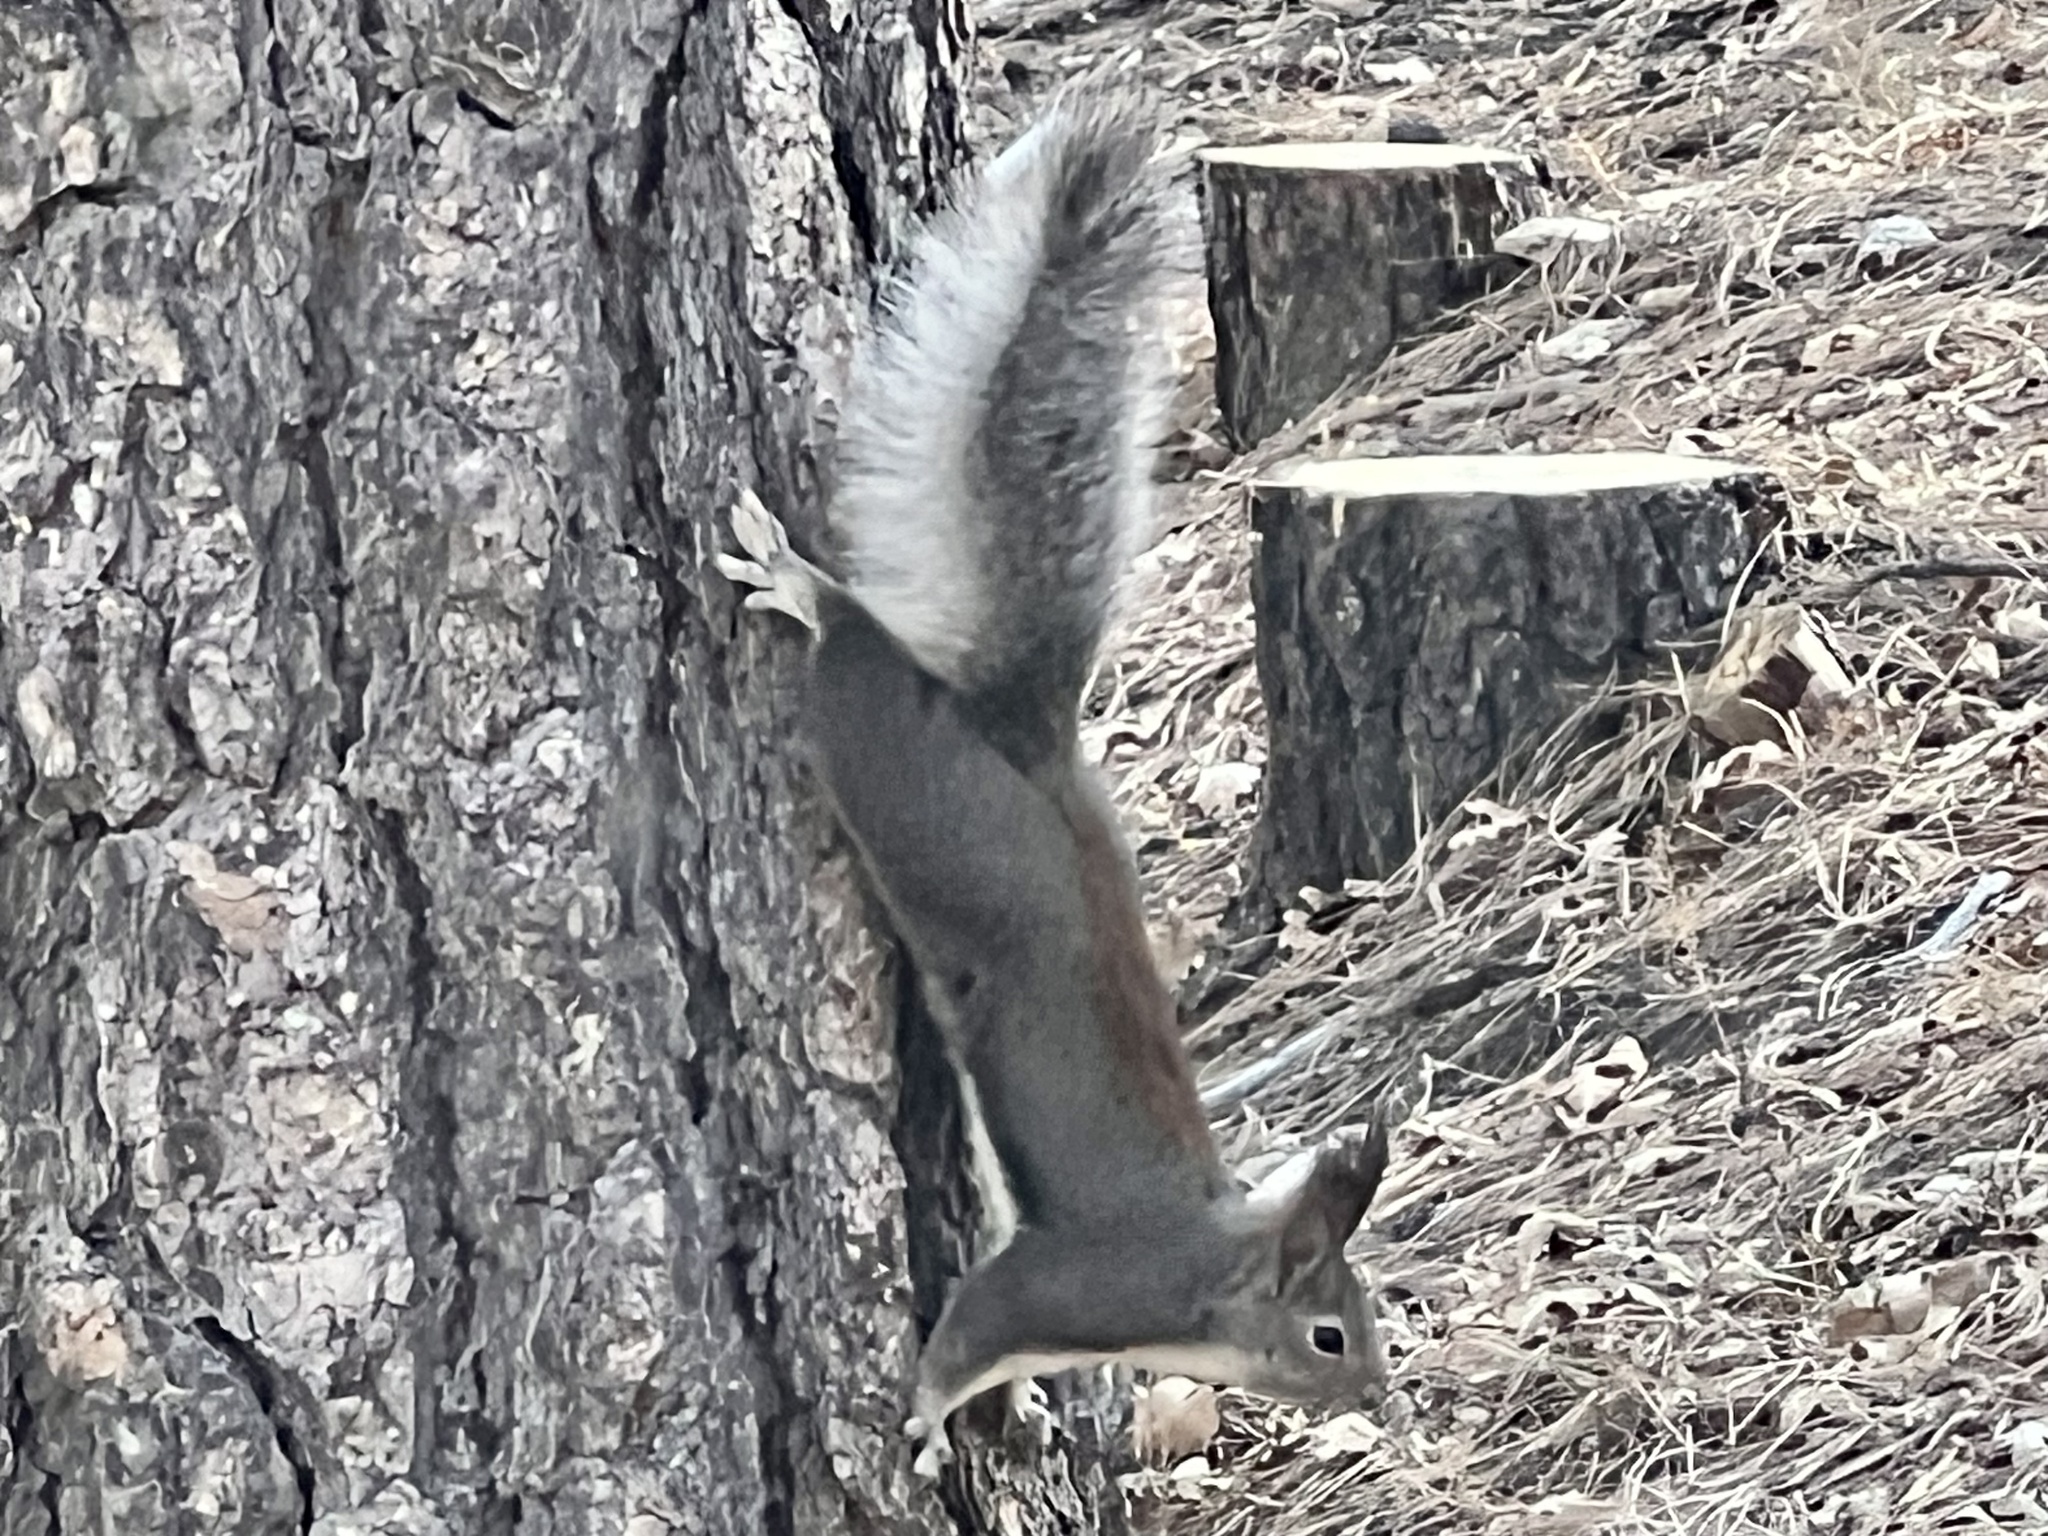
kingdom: Animalia
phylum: Chordata
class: Mammalia
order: Rodentia
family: Sciuridae
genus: Sciurus
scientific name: Sciurus aberti
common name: Abert's squirrel
